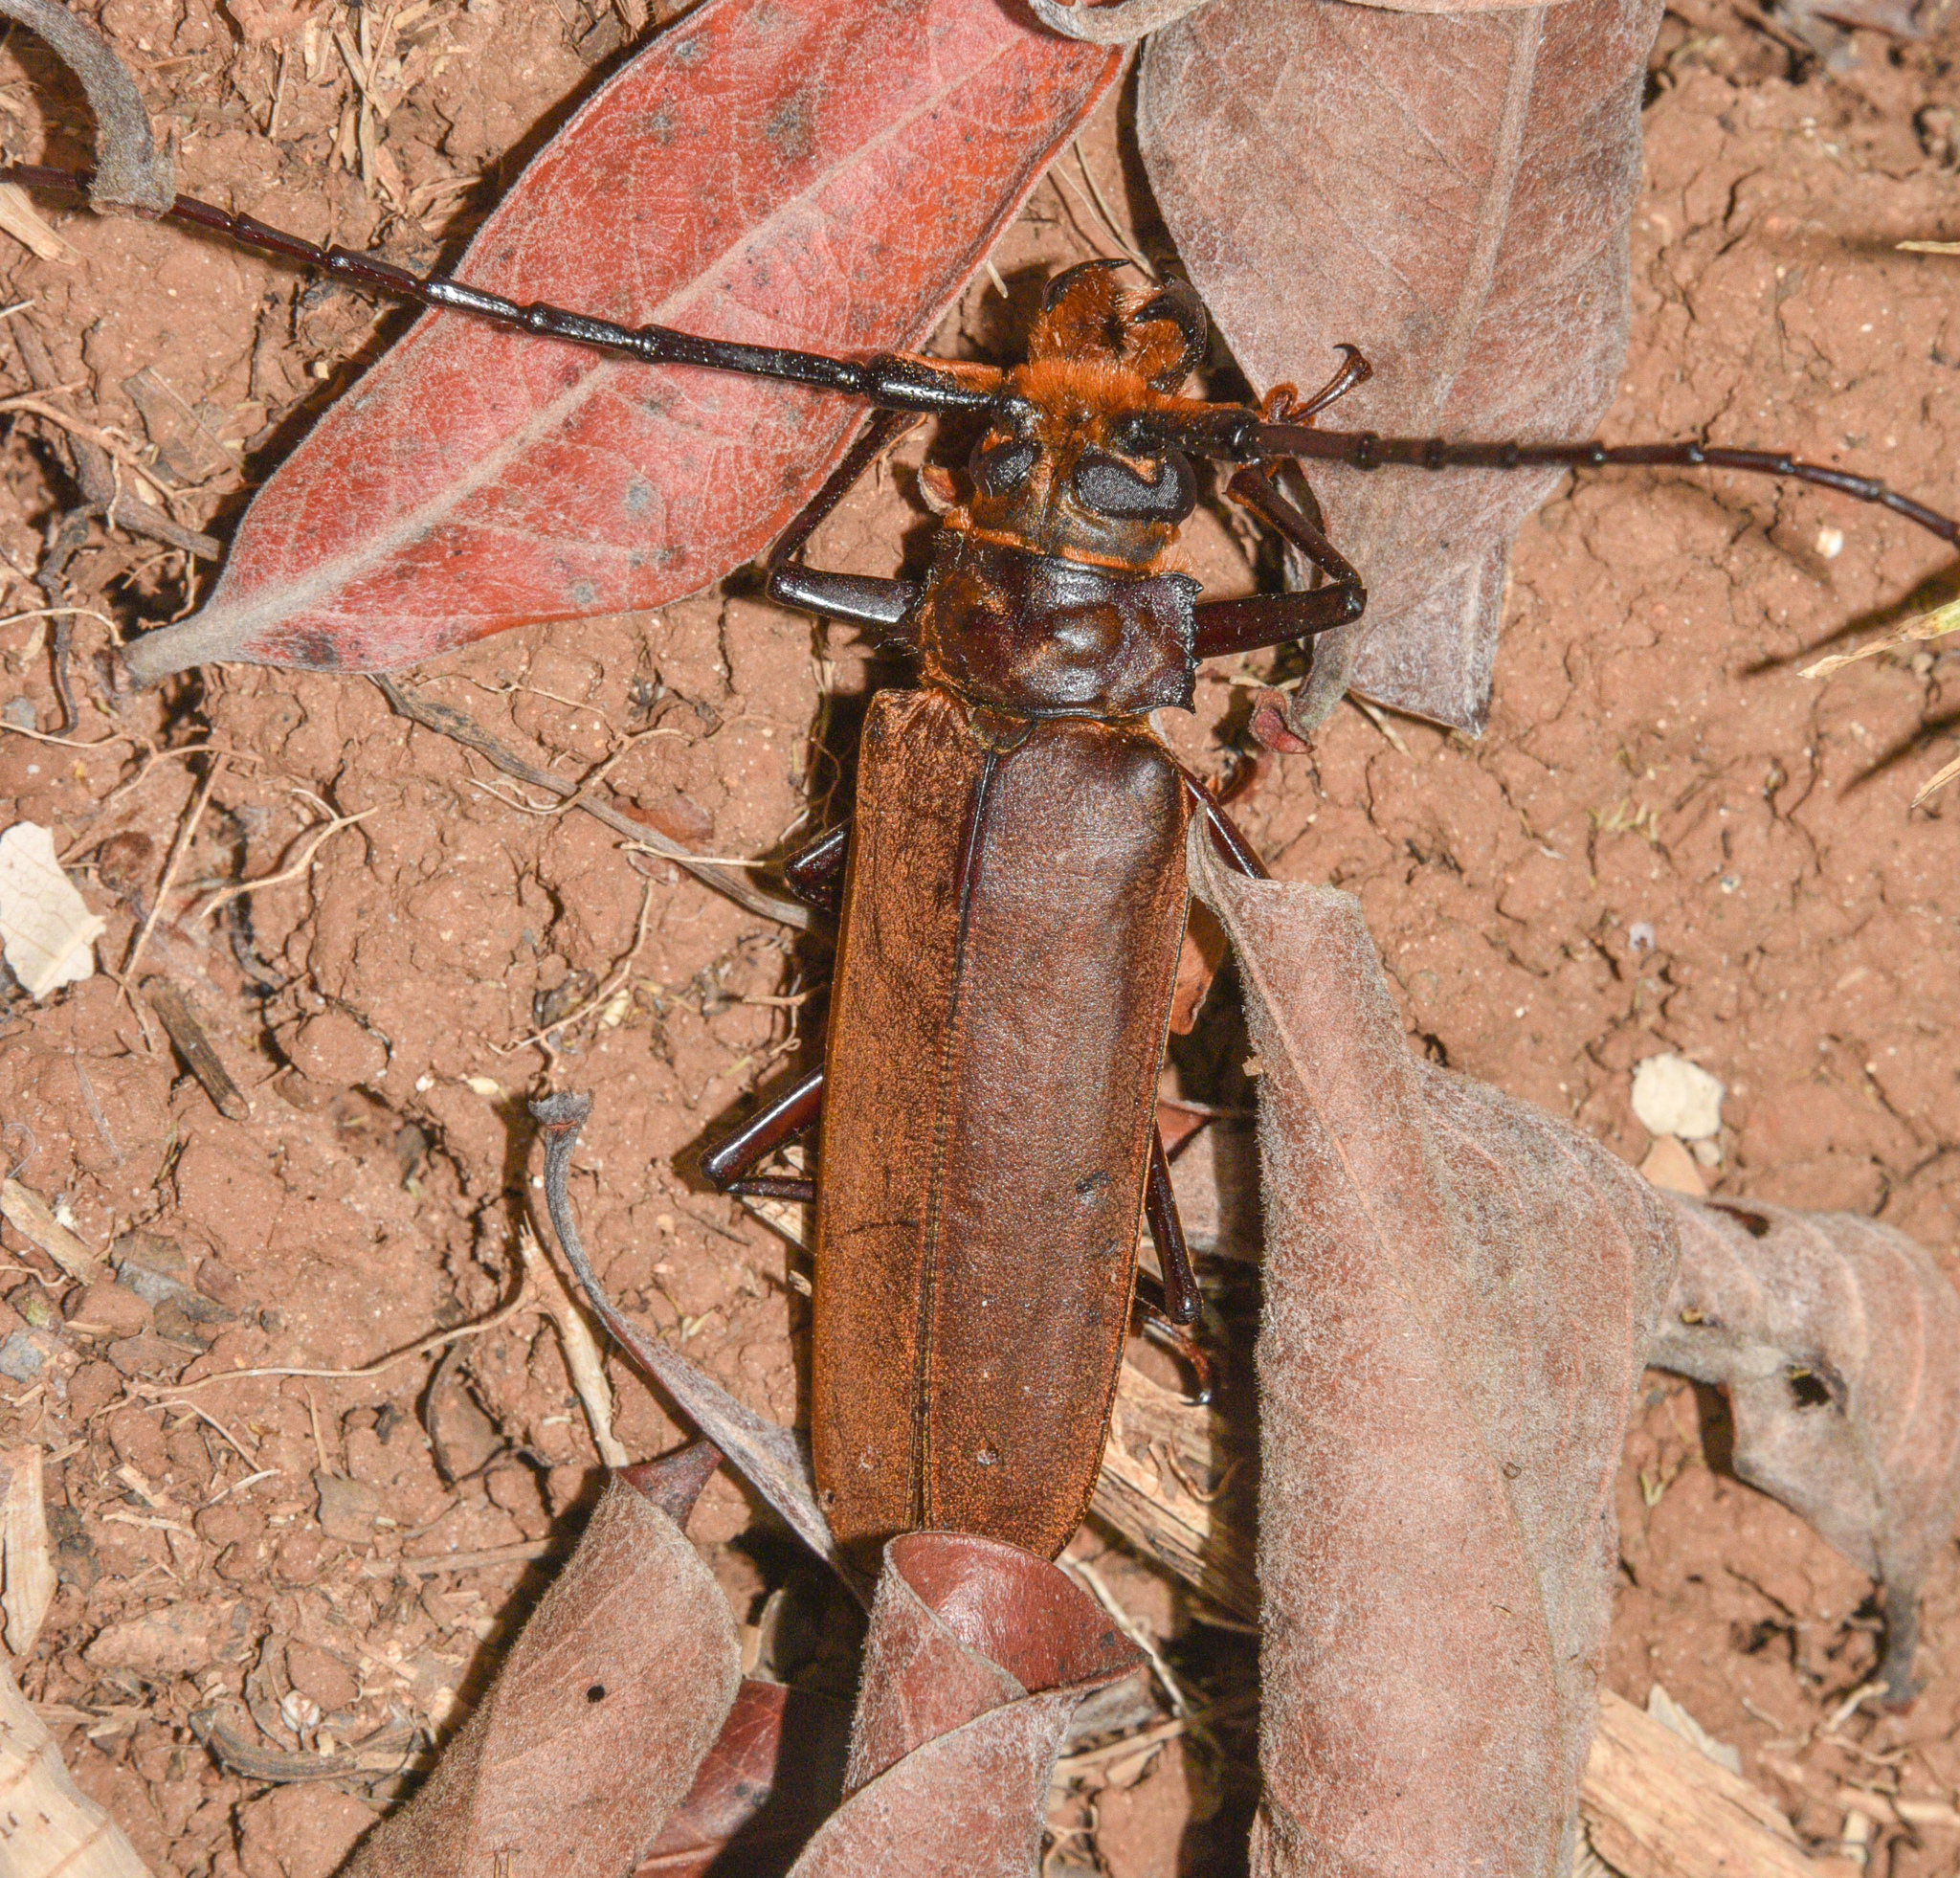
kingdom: Animalia
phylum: Arthropoda
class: Insecta
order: Coleoptera
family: Cerambycidae
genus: Orthomegas
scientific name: Orthomegas marechali
